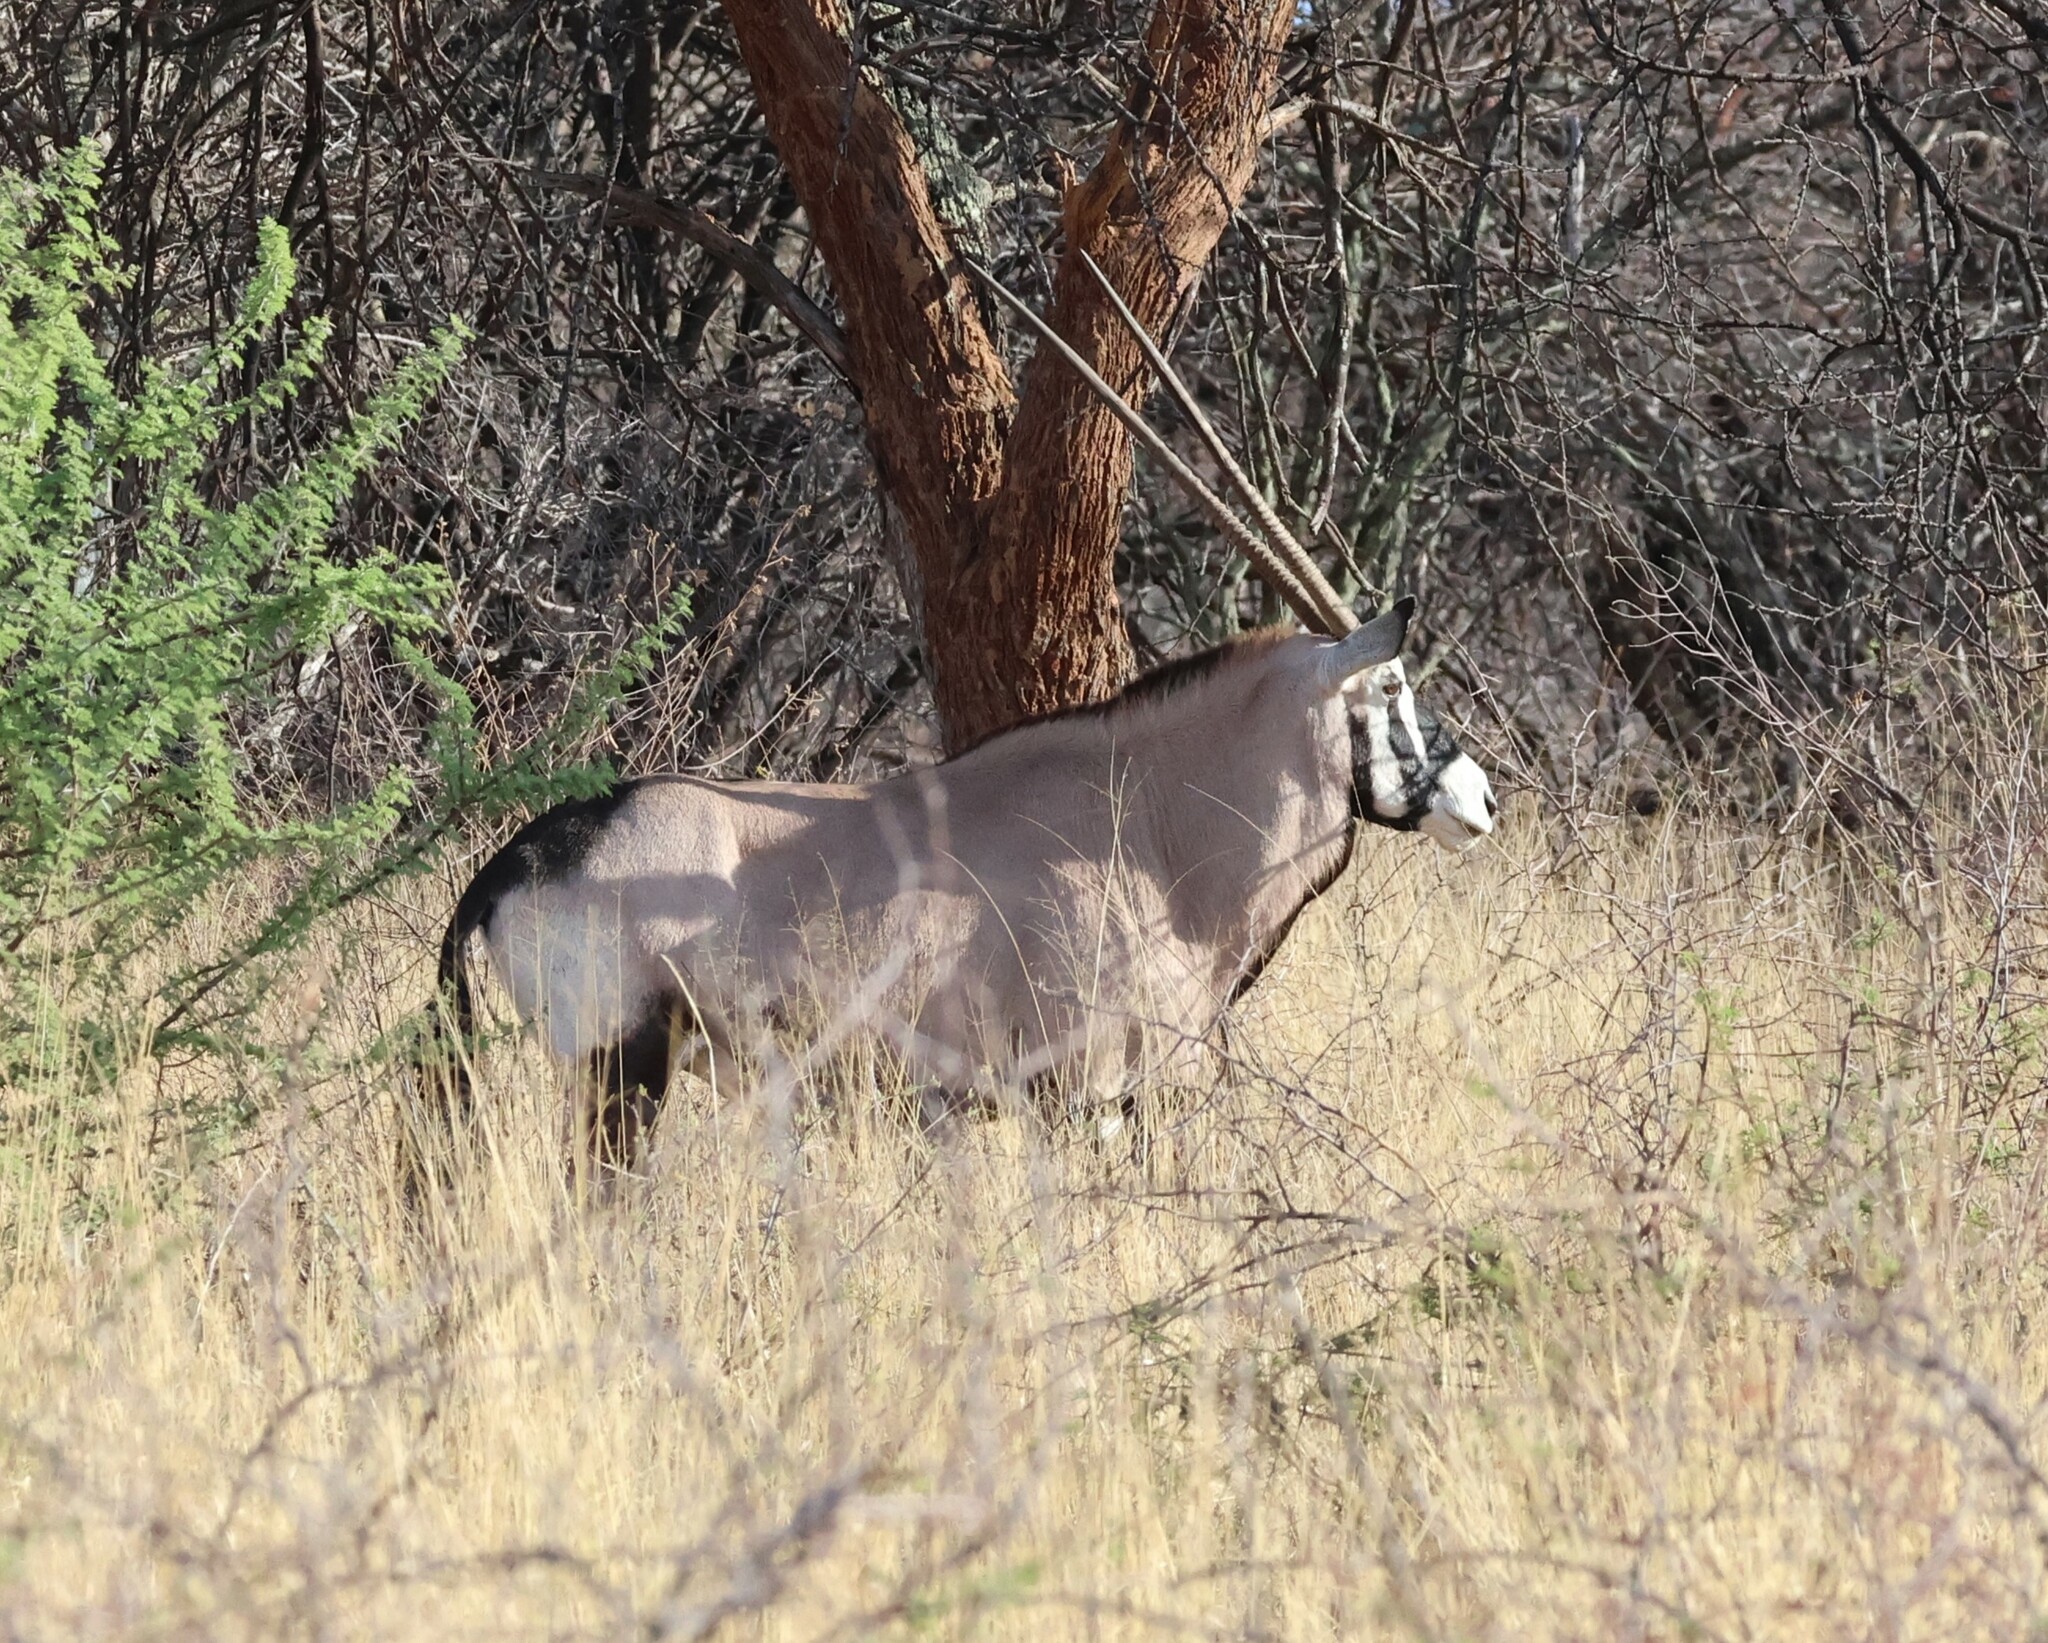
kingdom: Animalia
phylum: Chordata
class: Mammalia
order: Artiodactyla
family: Bovidae
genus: Oryx
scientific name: Oryx gazella
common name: Gemsbok
